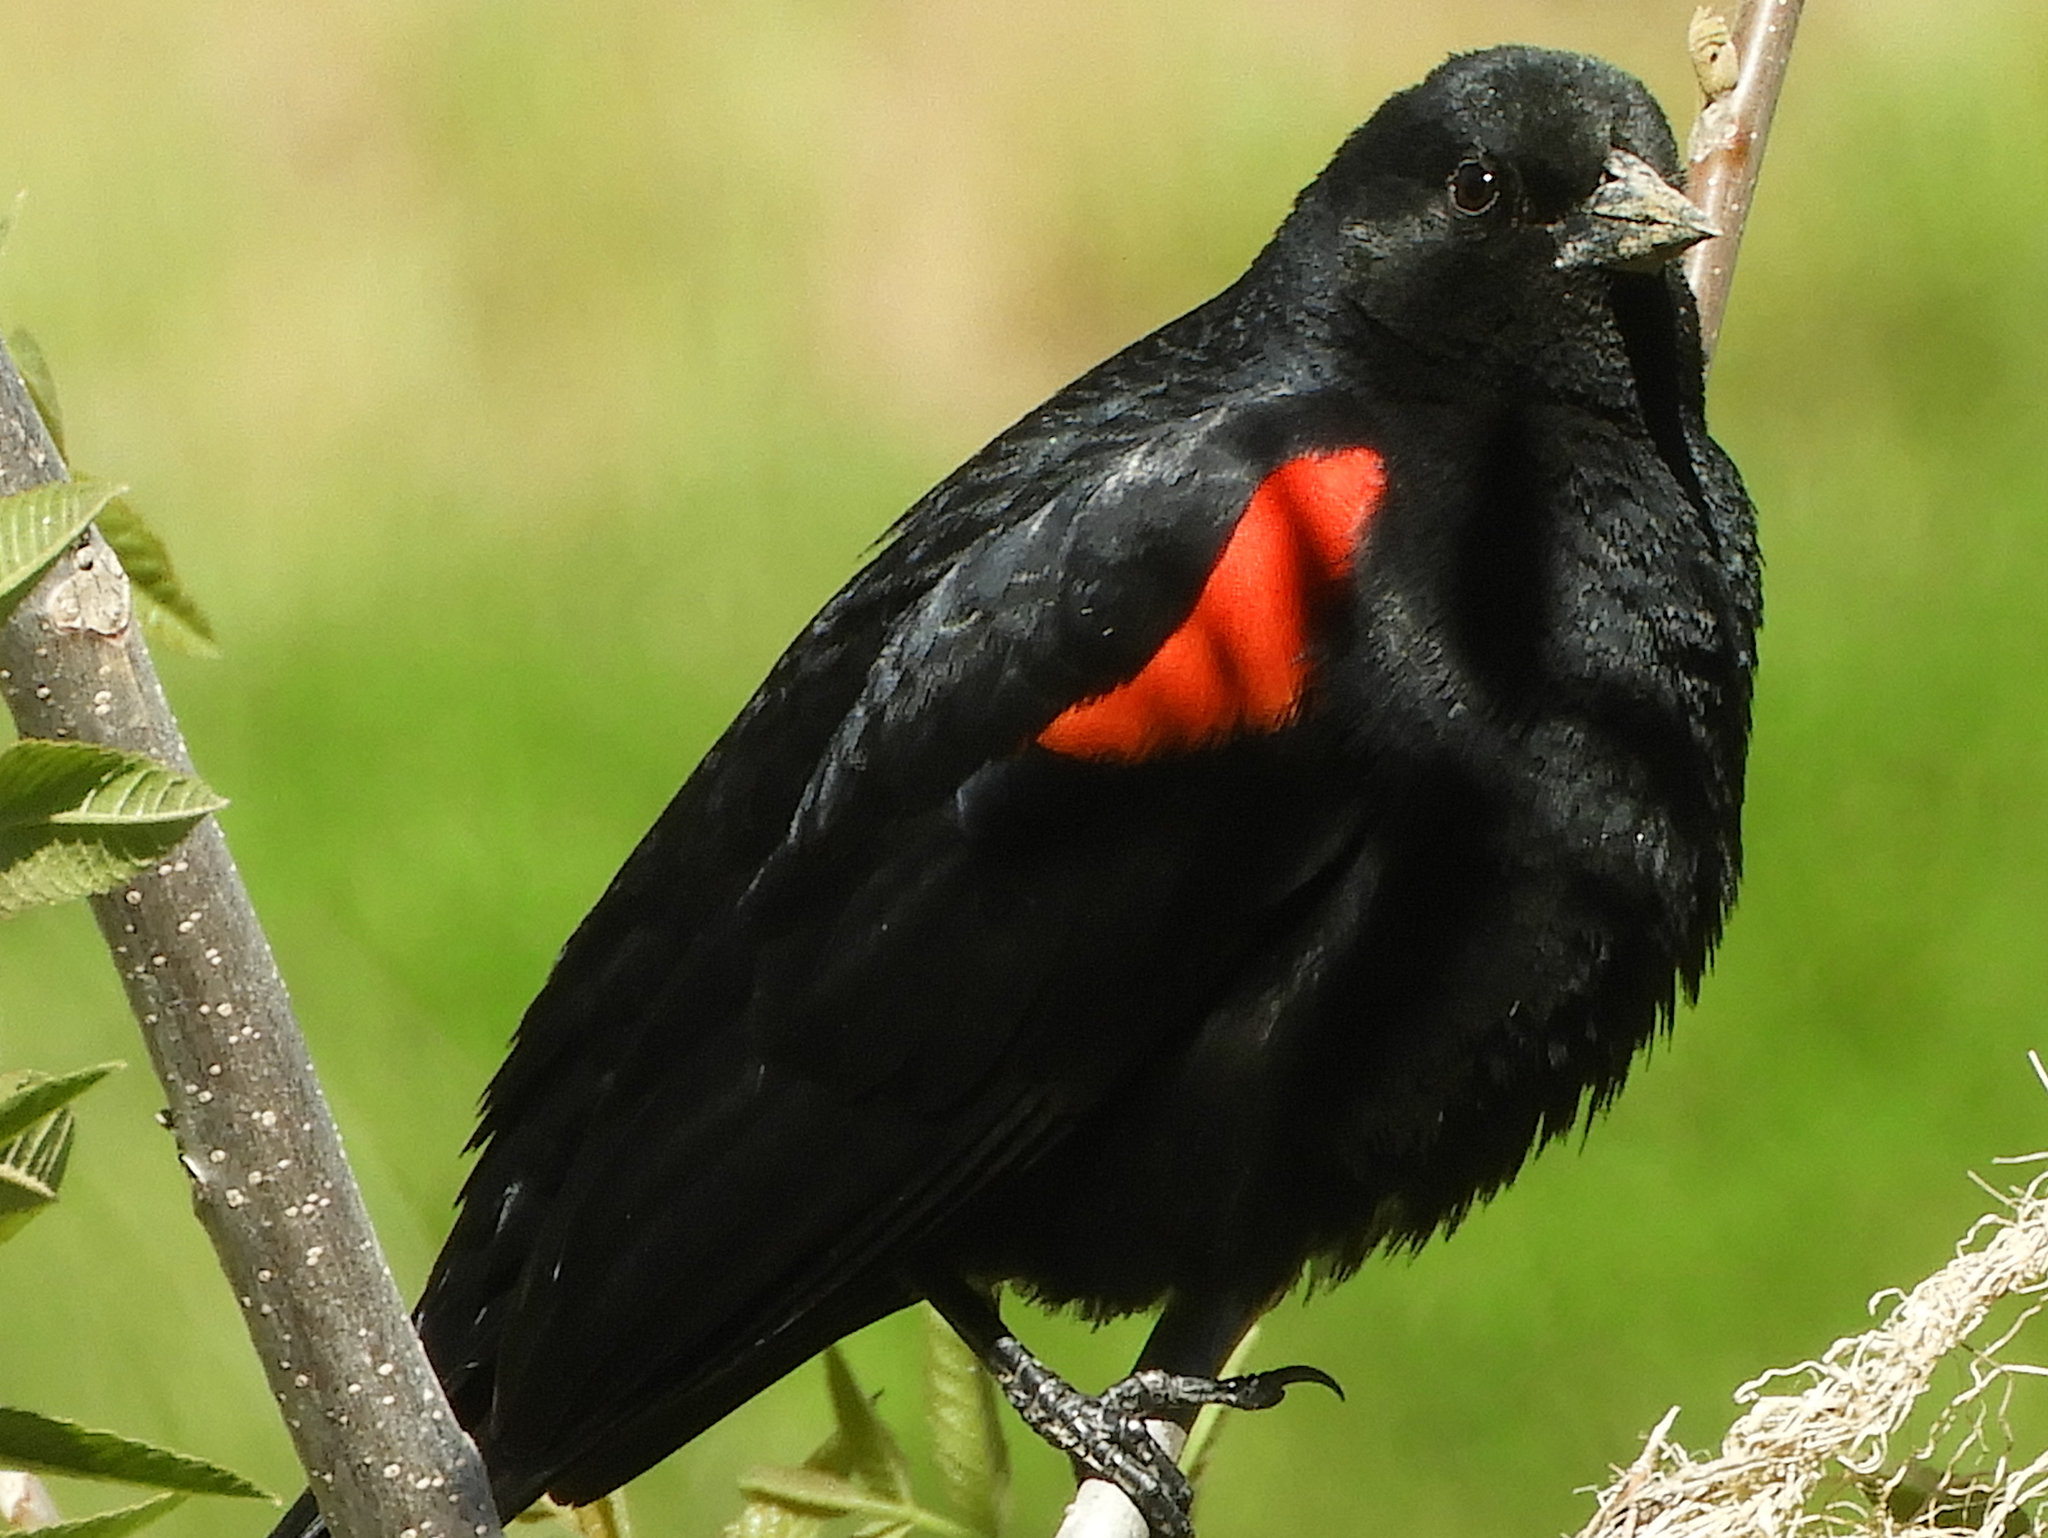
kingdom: Animalia
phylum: Chordata
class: Aves
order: Passeriformes
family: Icteridae
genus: Agelaius
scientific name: Agelaius phoeniceus
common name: Red-winged blackbird
